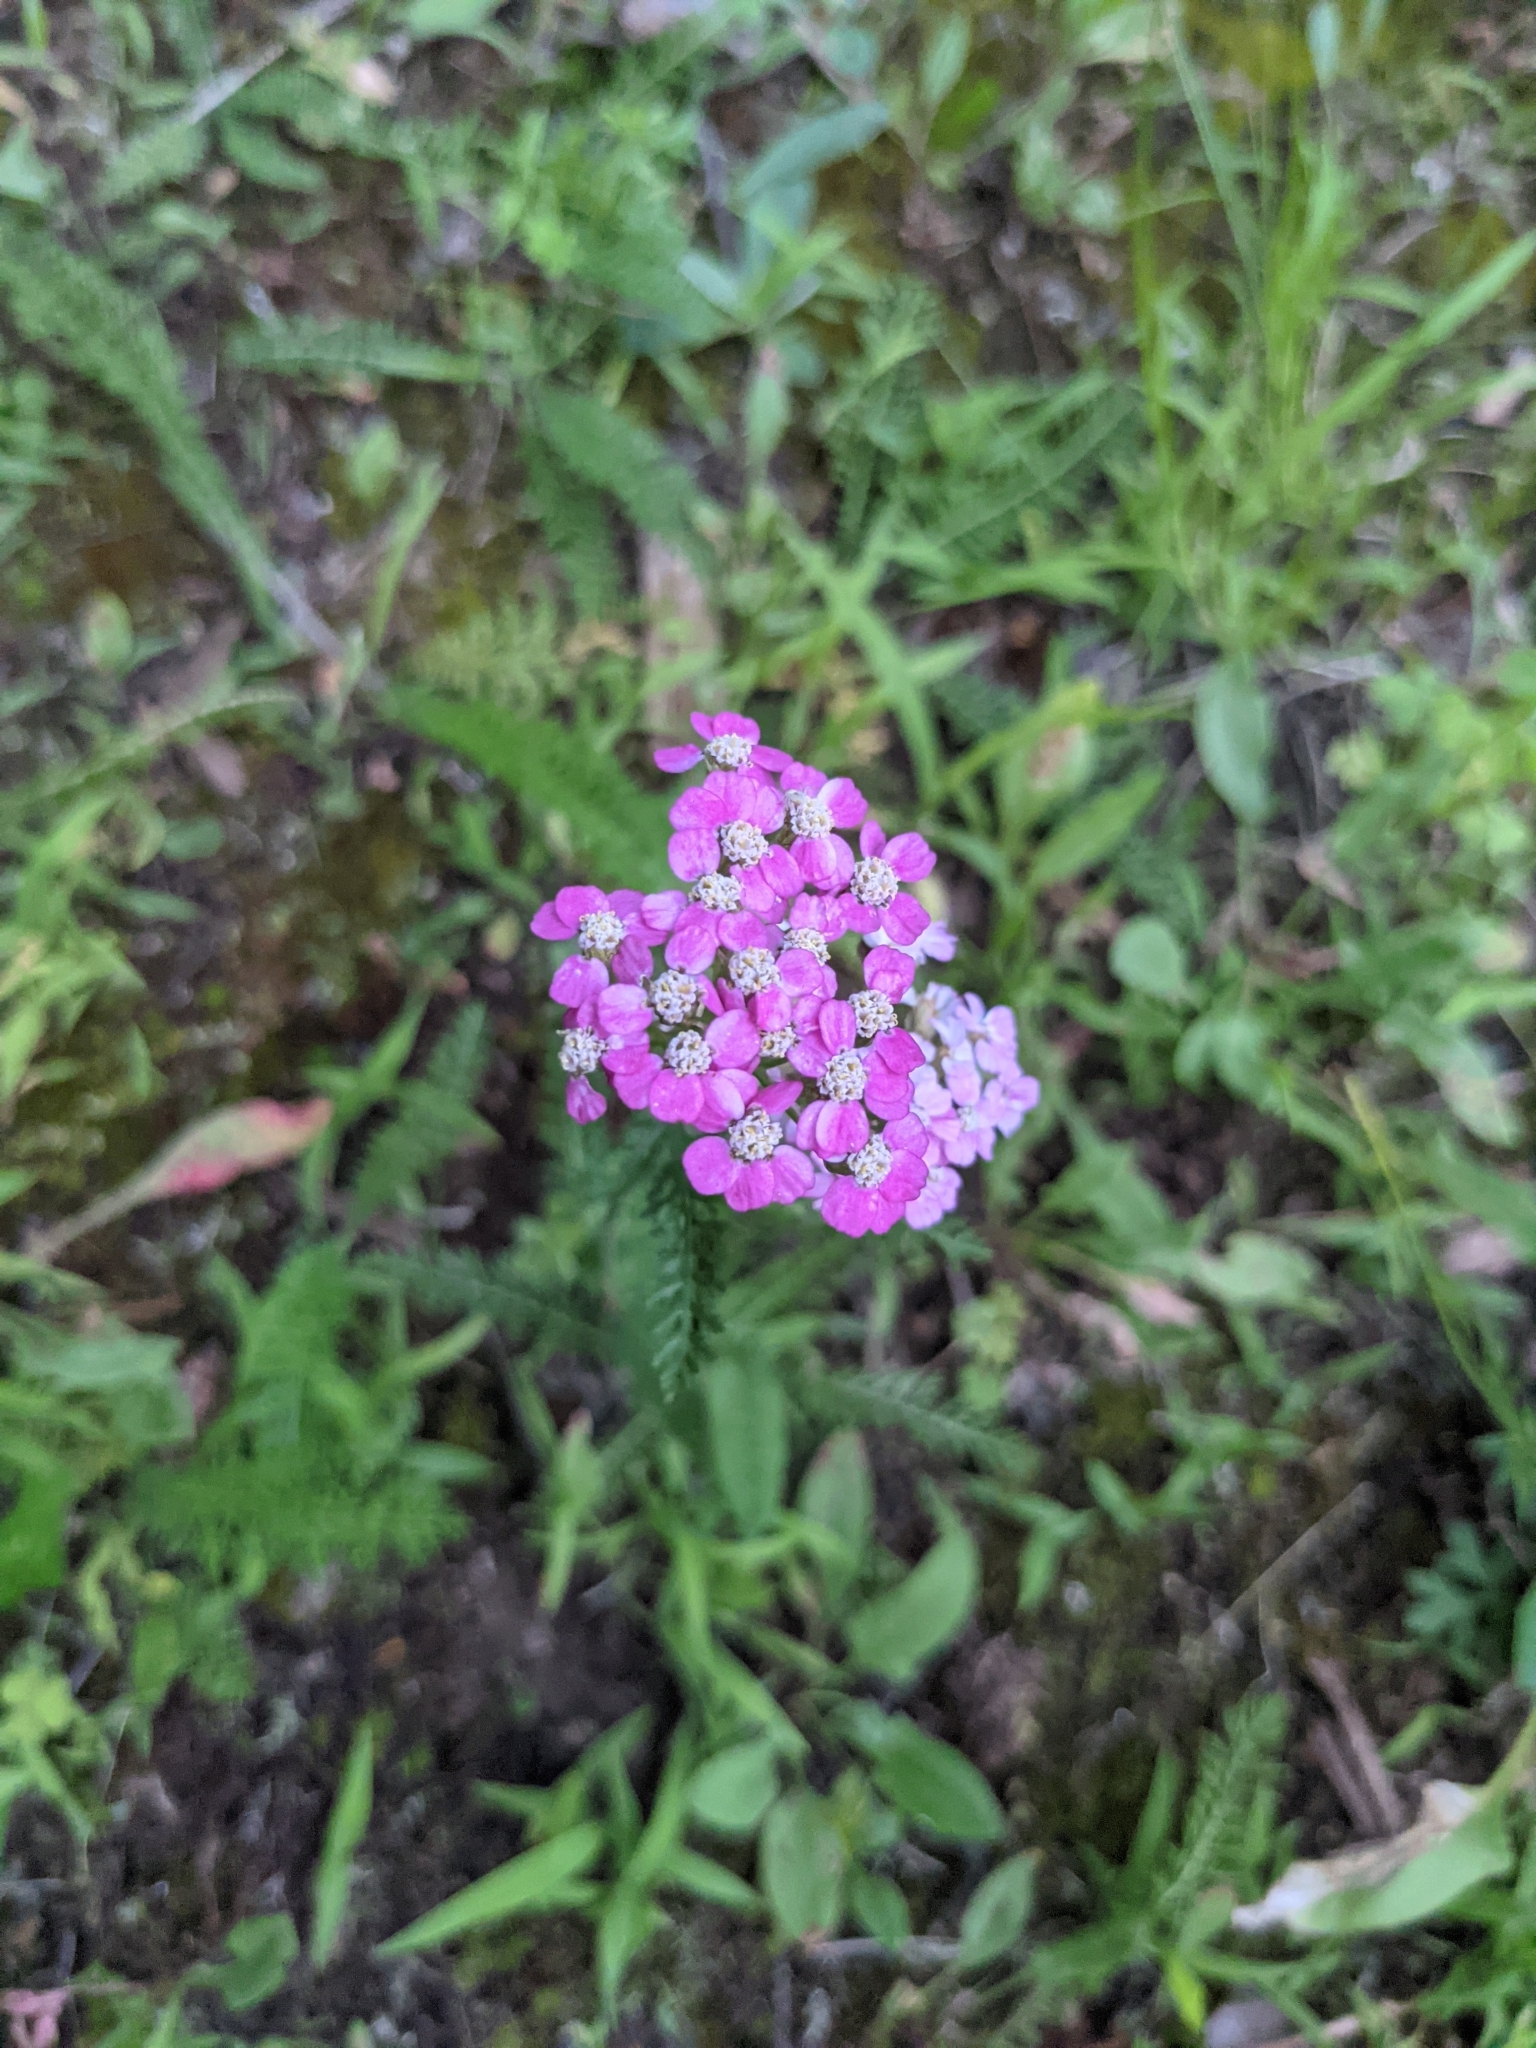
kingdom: Plantae
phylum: Tracheophyta
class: Magnoliopsida
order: Asterales
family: Asteraceae
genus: Achillea
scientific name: Achillea millefolium
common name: Yarrow
